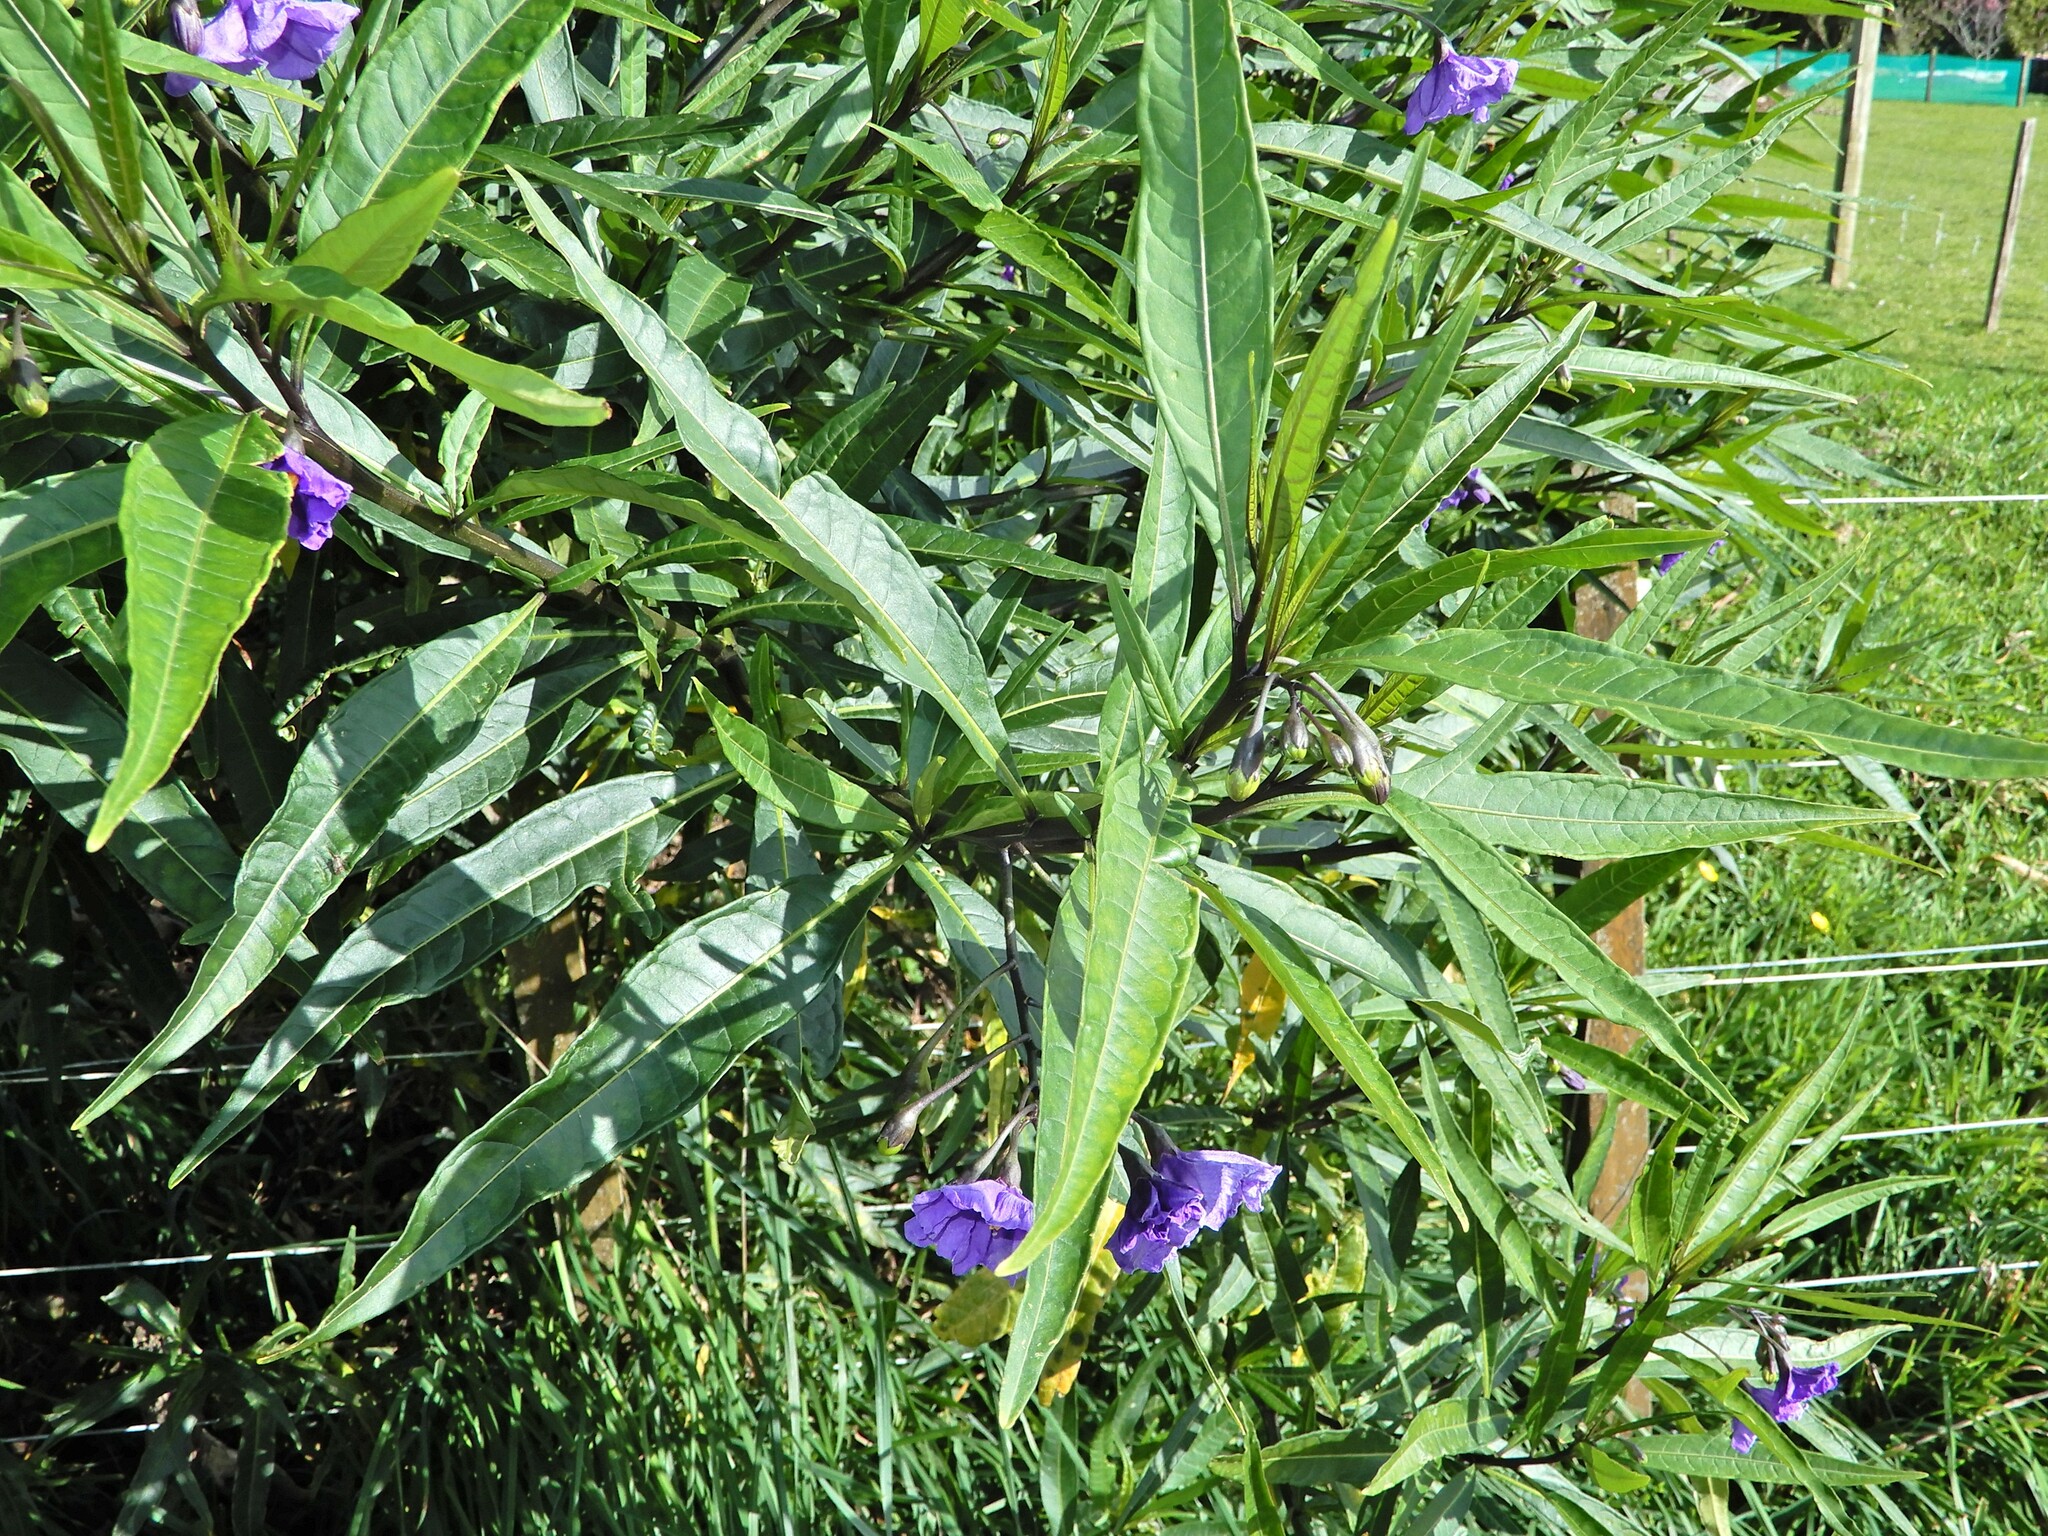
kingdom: Plantae
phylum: Tracheophyta
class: Magnoliopsida
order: Solanales
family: Solanaceae
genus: Solanum
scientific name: Solanum laciniatum
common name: Kangaroo-apple
